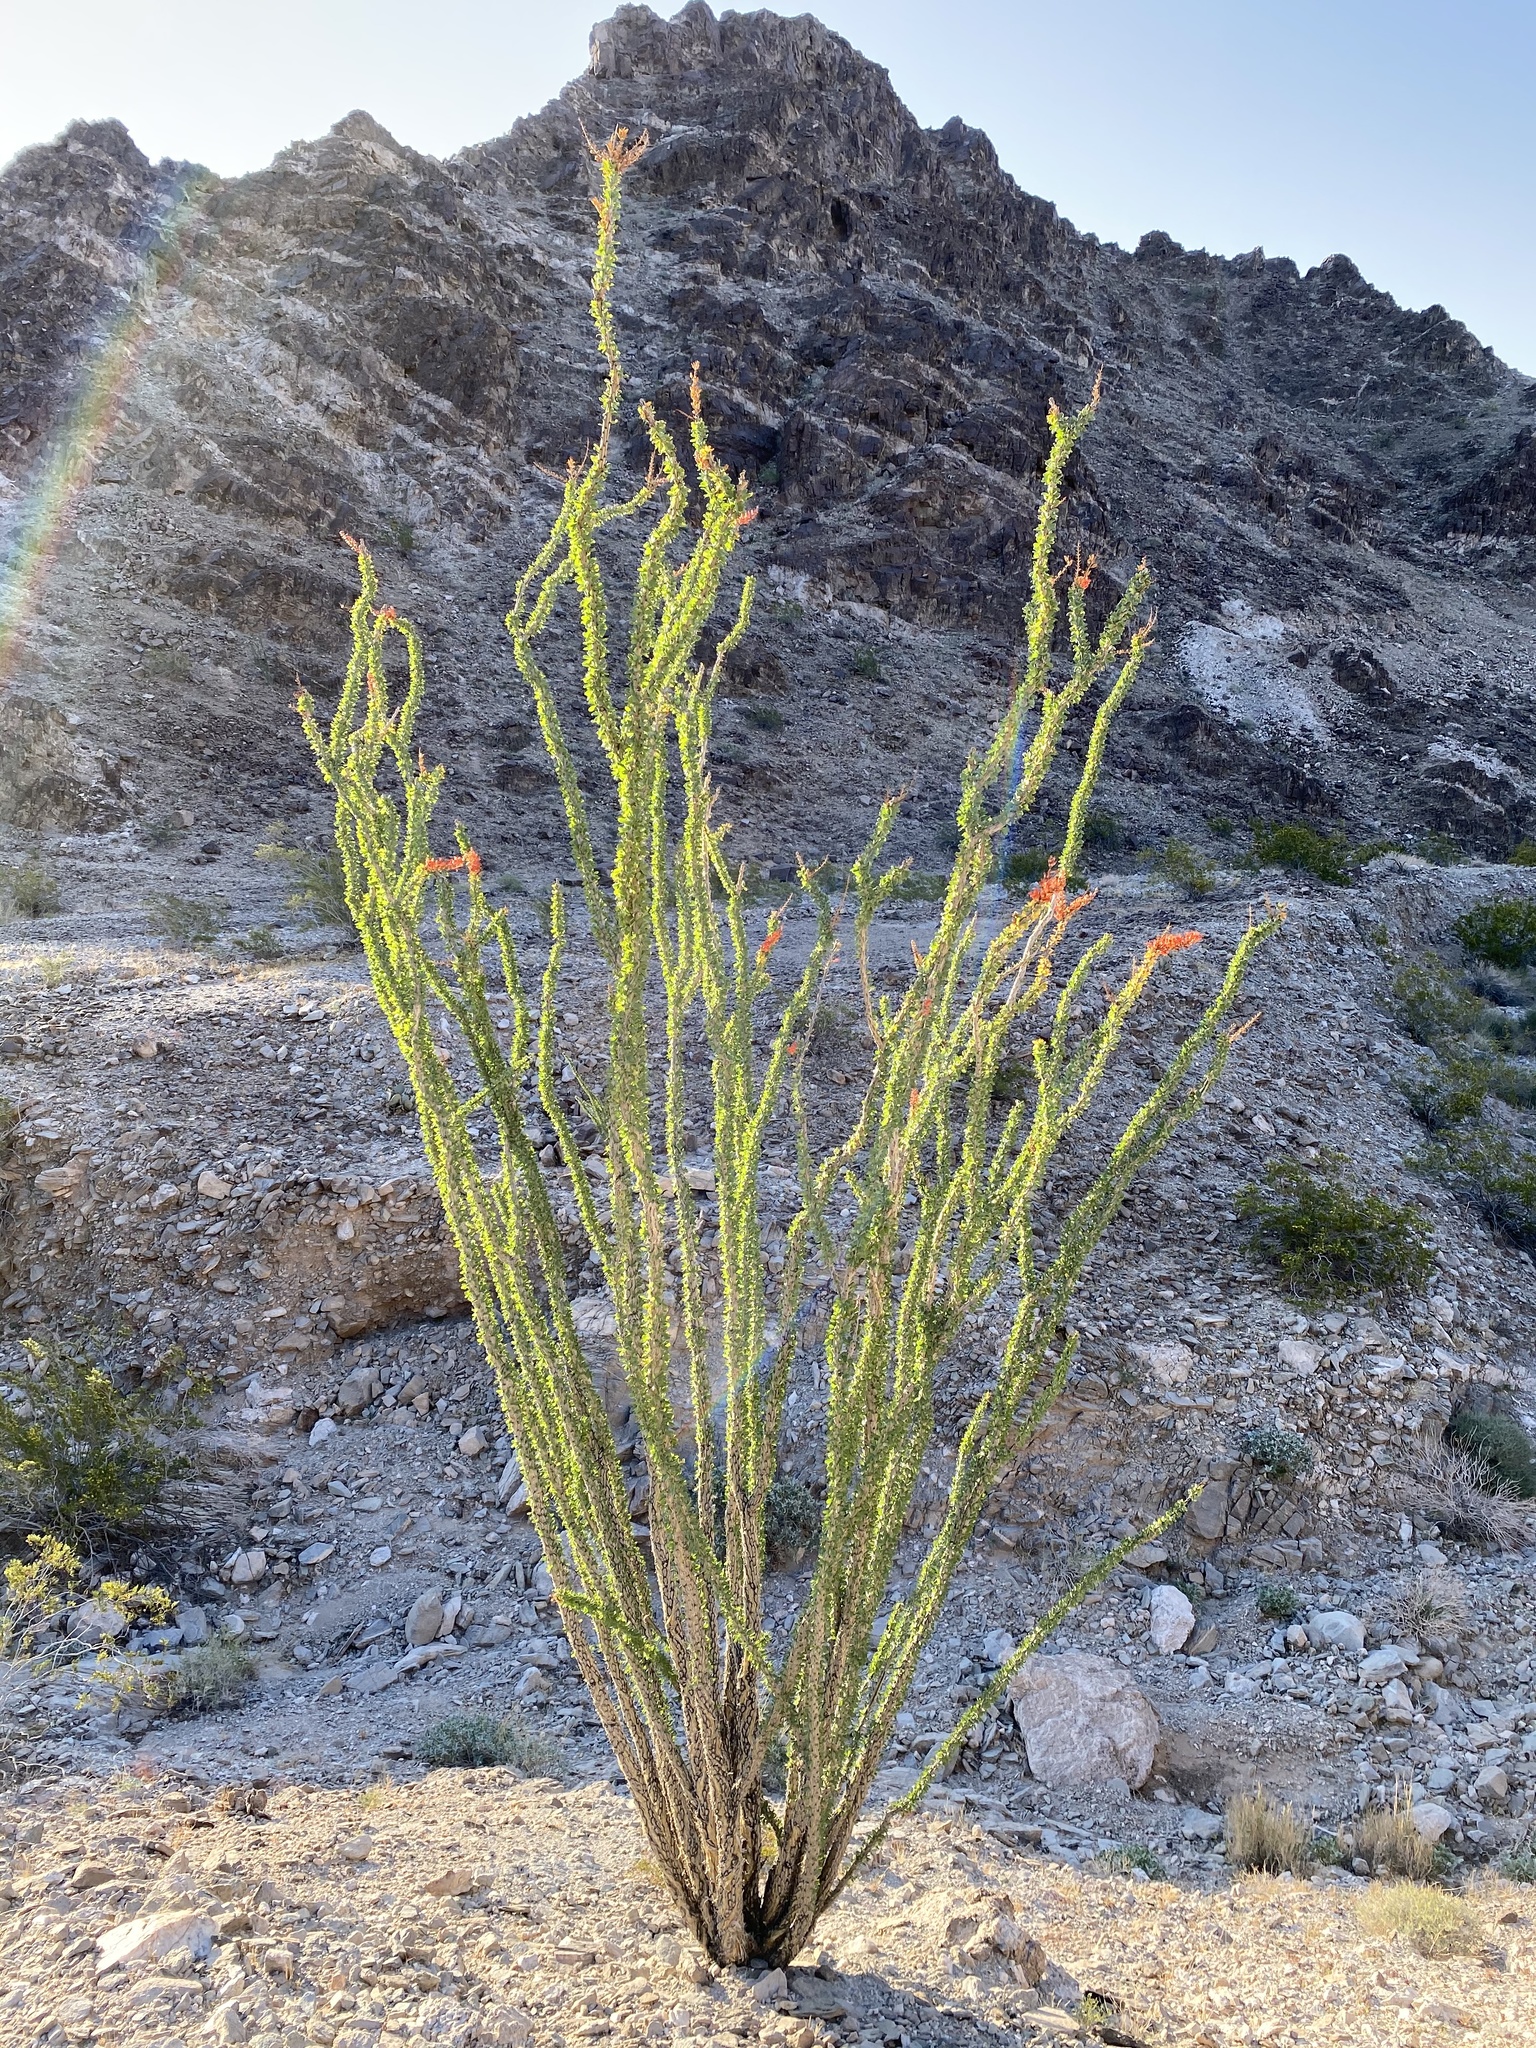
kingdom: Plantae
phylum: Tracheophyta
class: Magnoliopsida
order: Ericales
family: Fouquieriaceae
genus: Fouquieria
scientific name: Fouquieria splendens
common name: Vine-cactus
